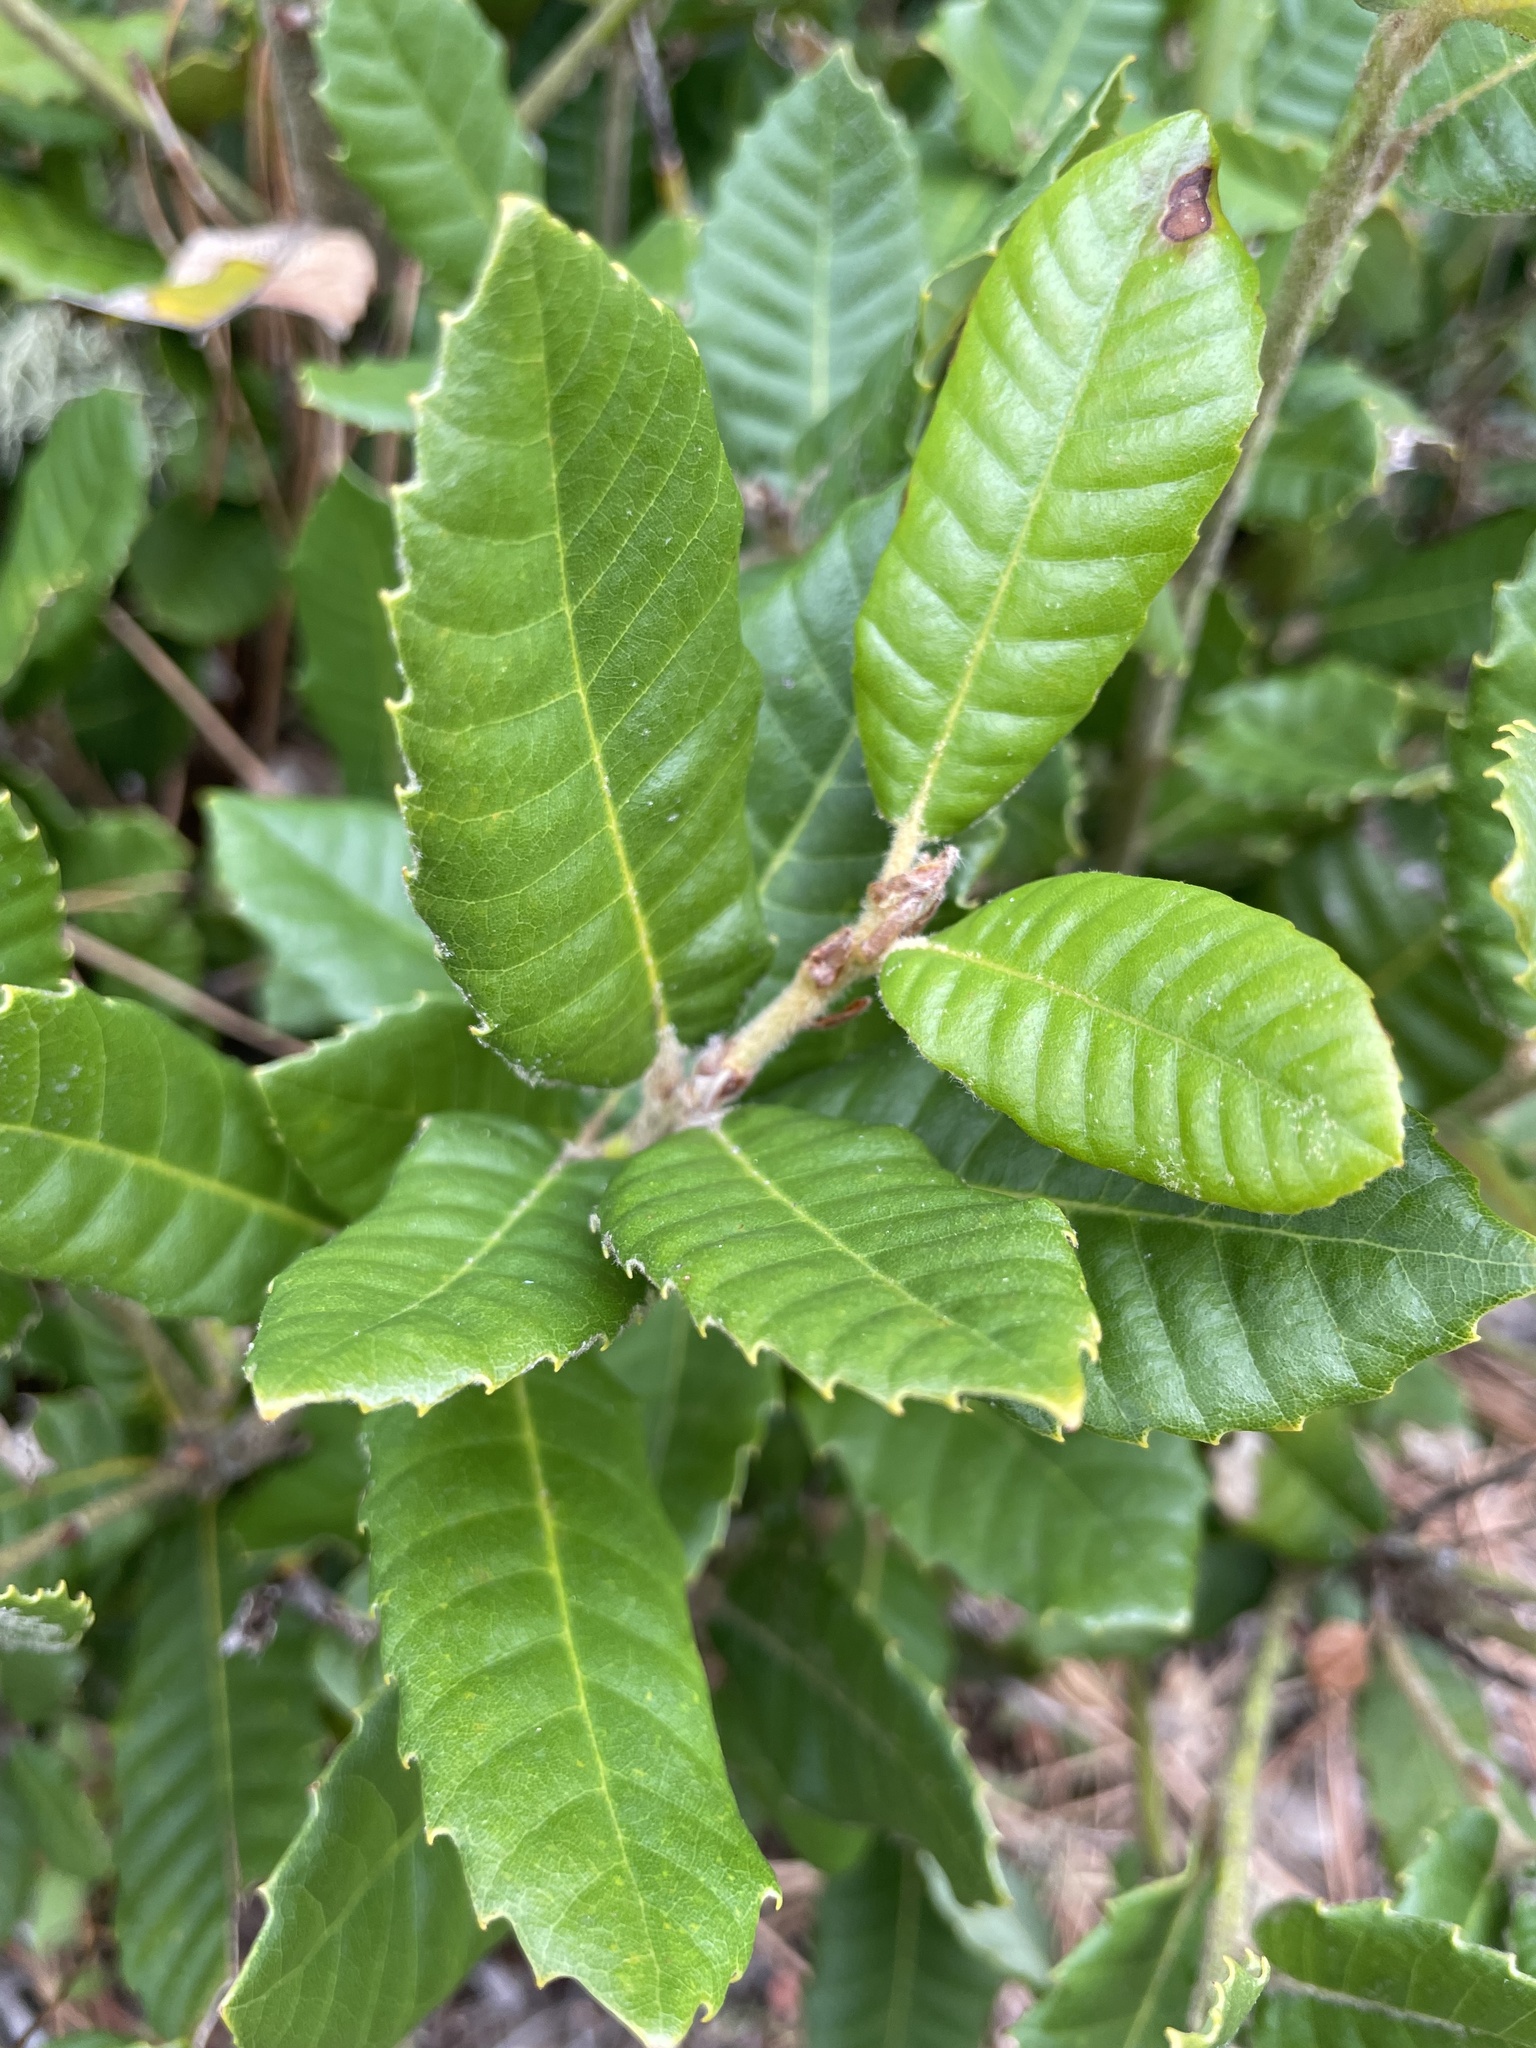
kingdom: Plantae
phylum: Tracheophyta
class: Magnoliopsida
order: Fagales
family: Fagaceae
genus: Notholithocarpus
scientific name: Notholithocarpus densiflorus
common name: Tan bark oak
